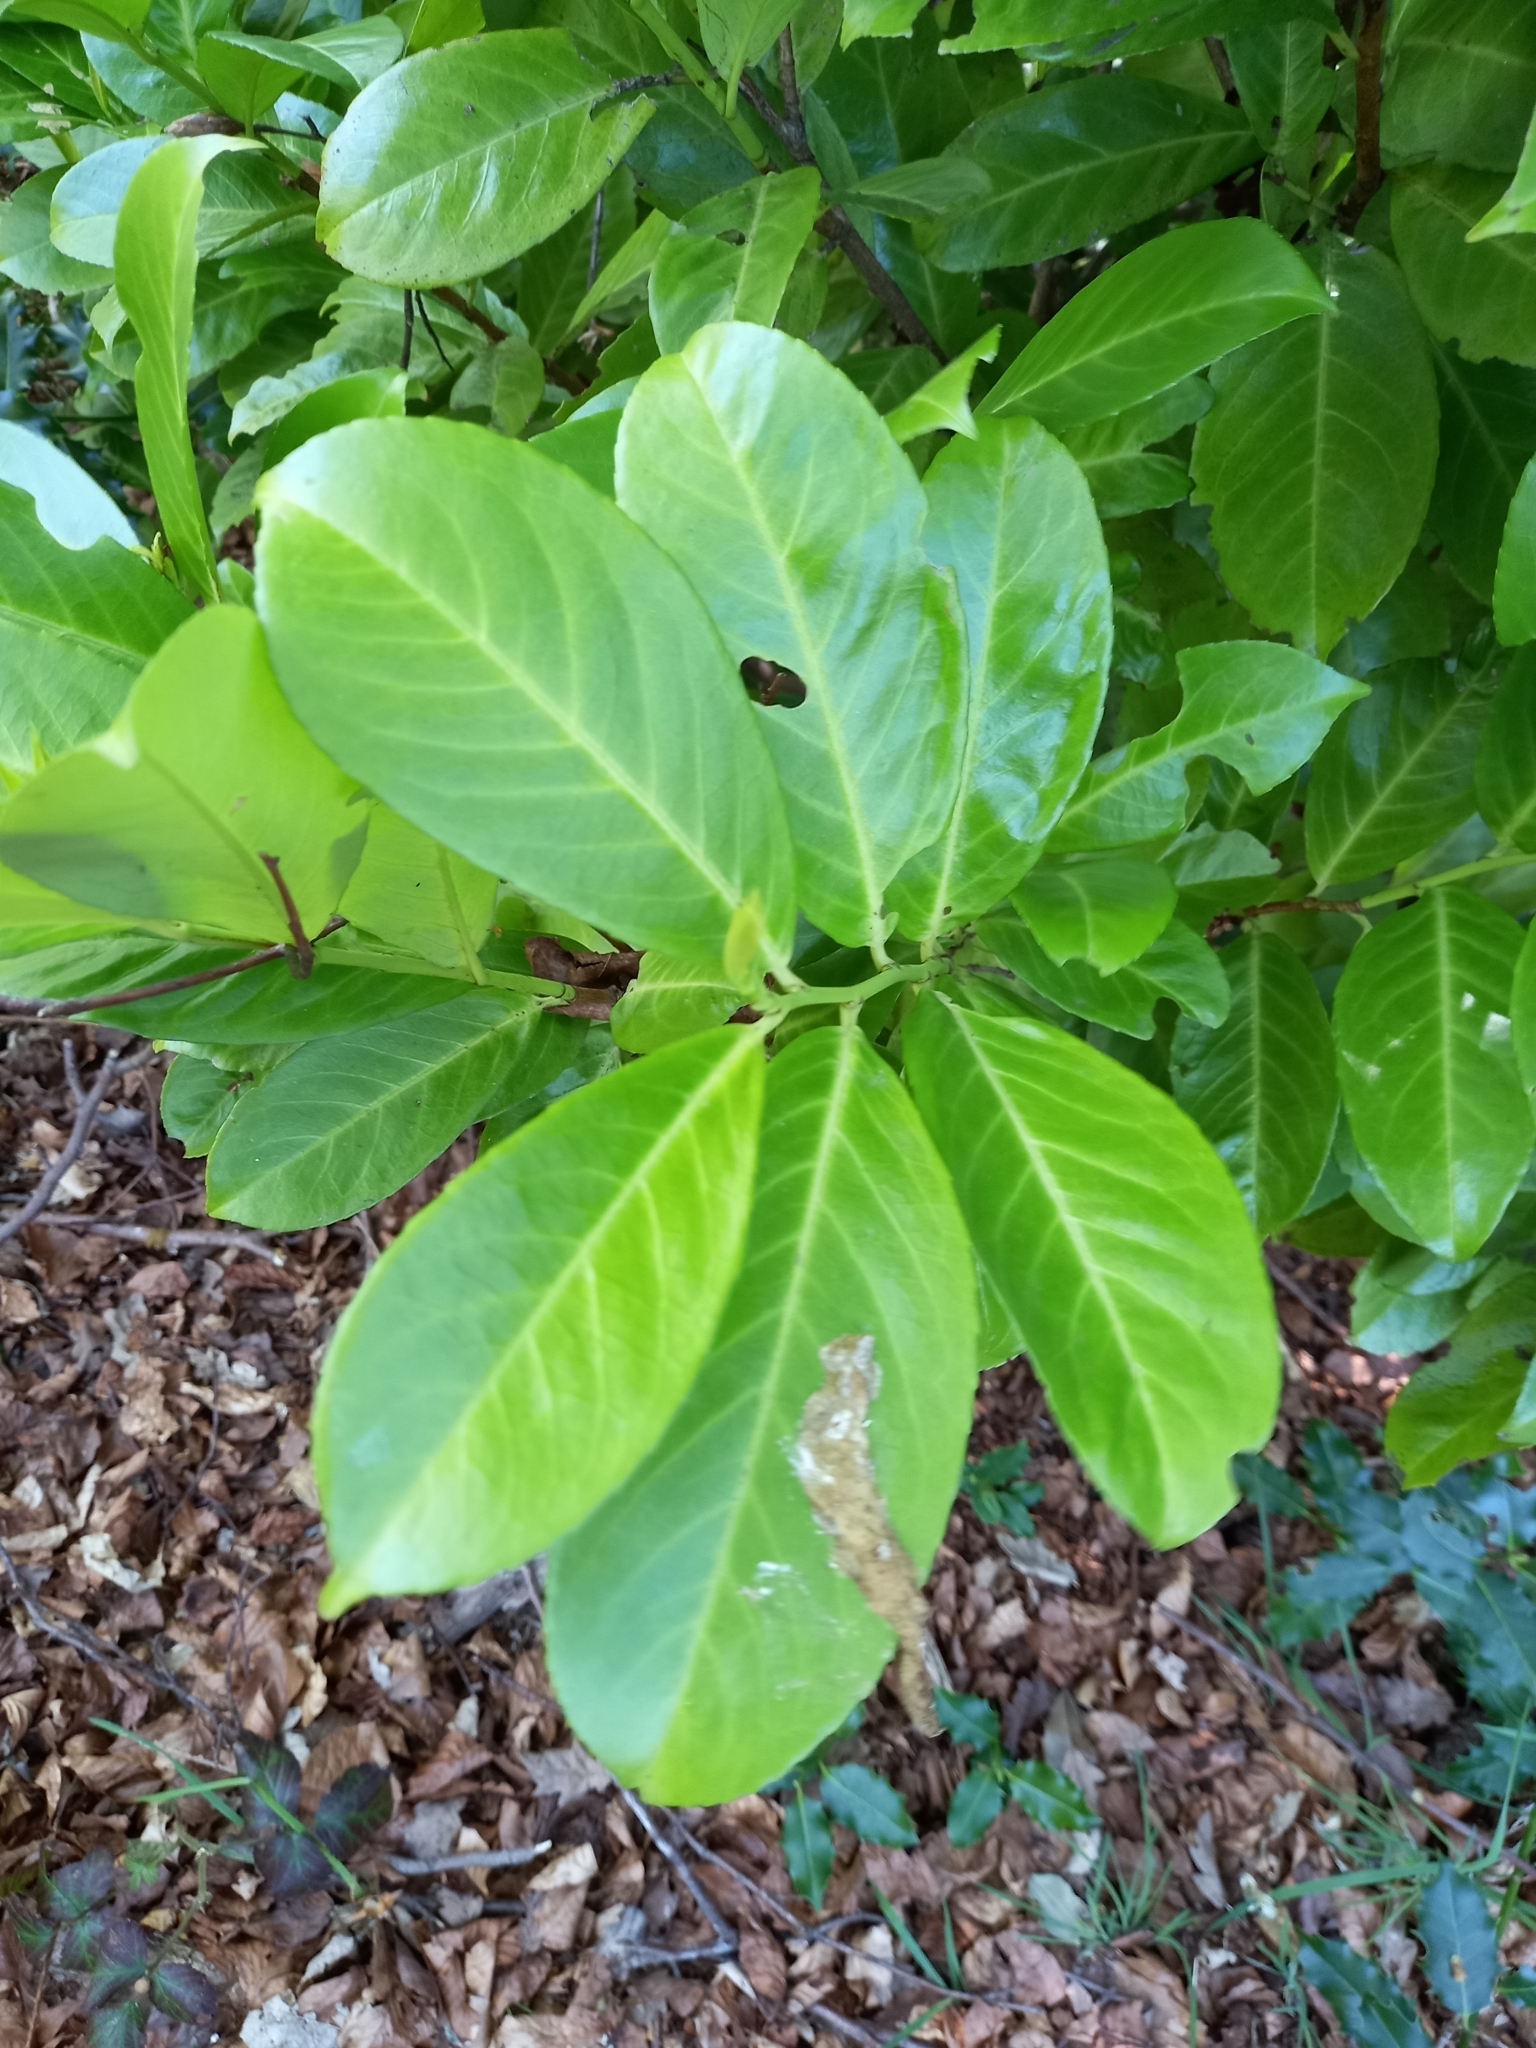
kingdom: Plantae
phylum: Tracheophyta
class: Magnoliopsida
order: Rosales
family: Rosaceae
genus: Prunus
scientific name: Prunus laurocerasus
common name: Cherry laurel
